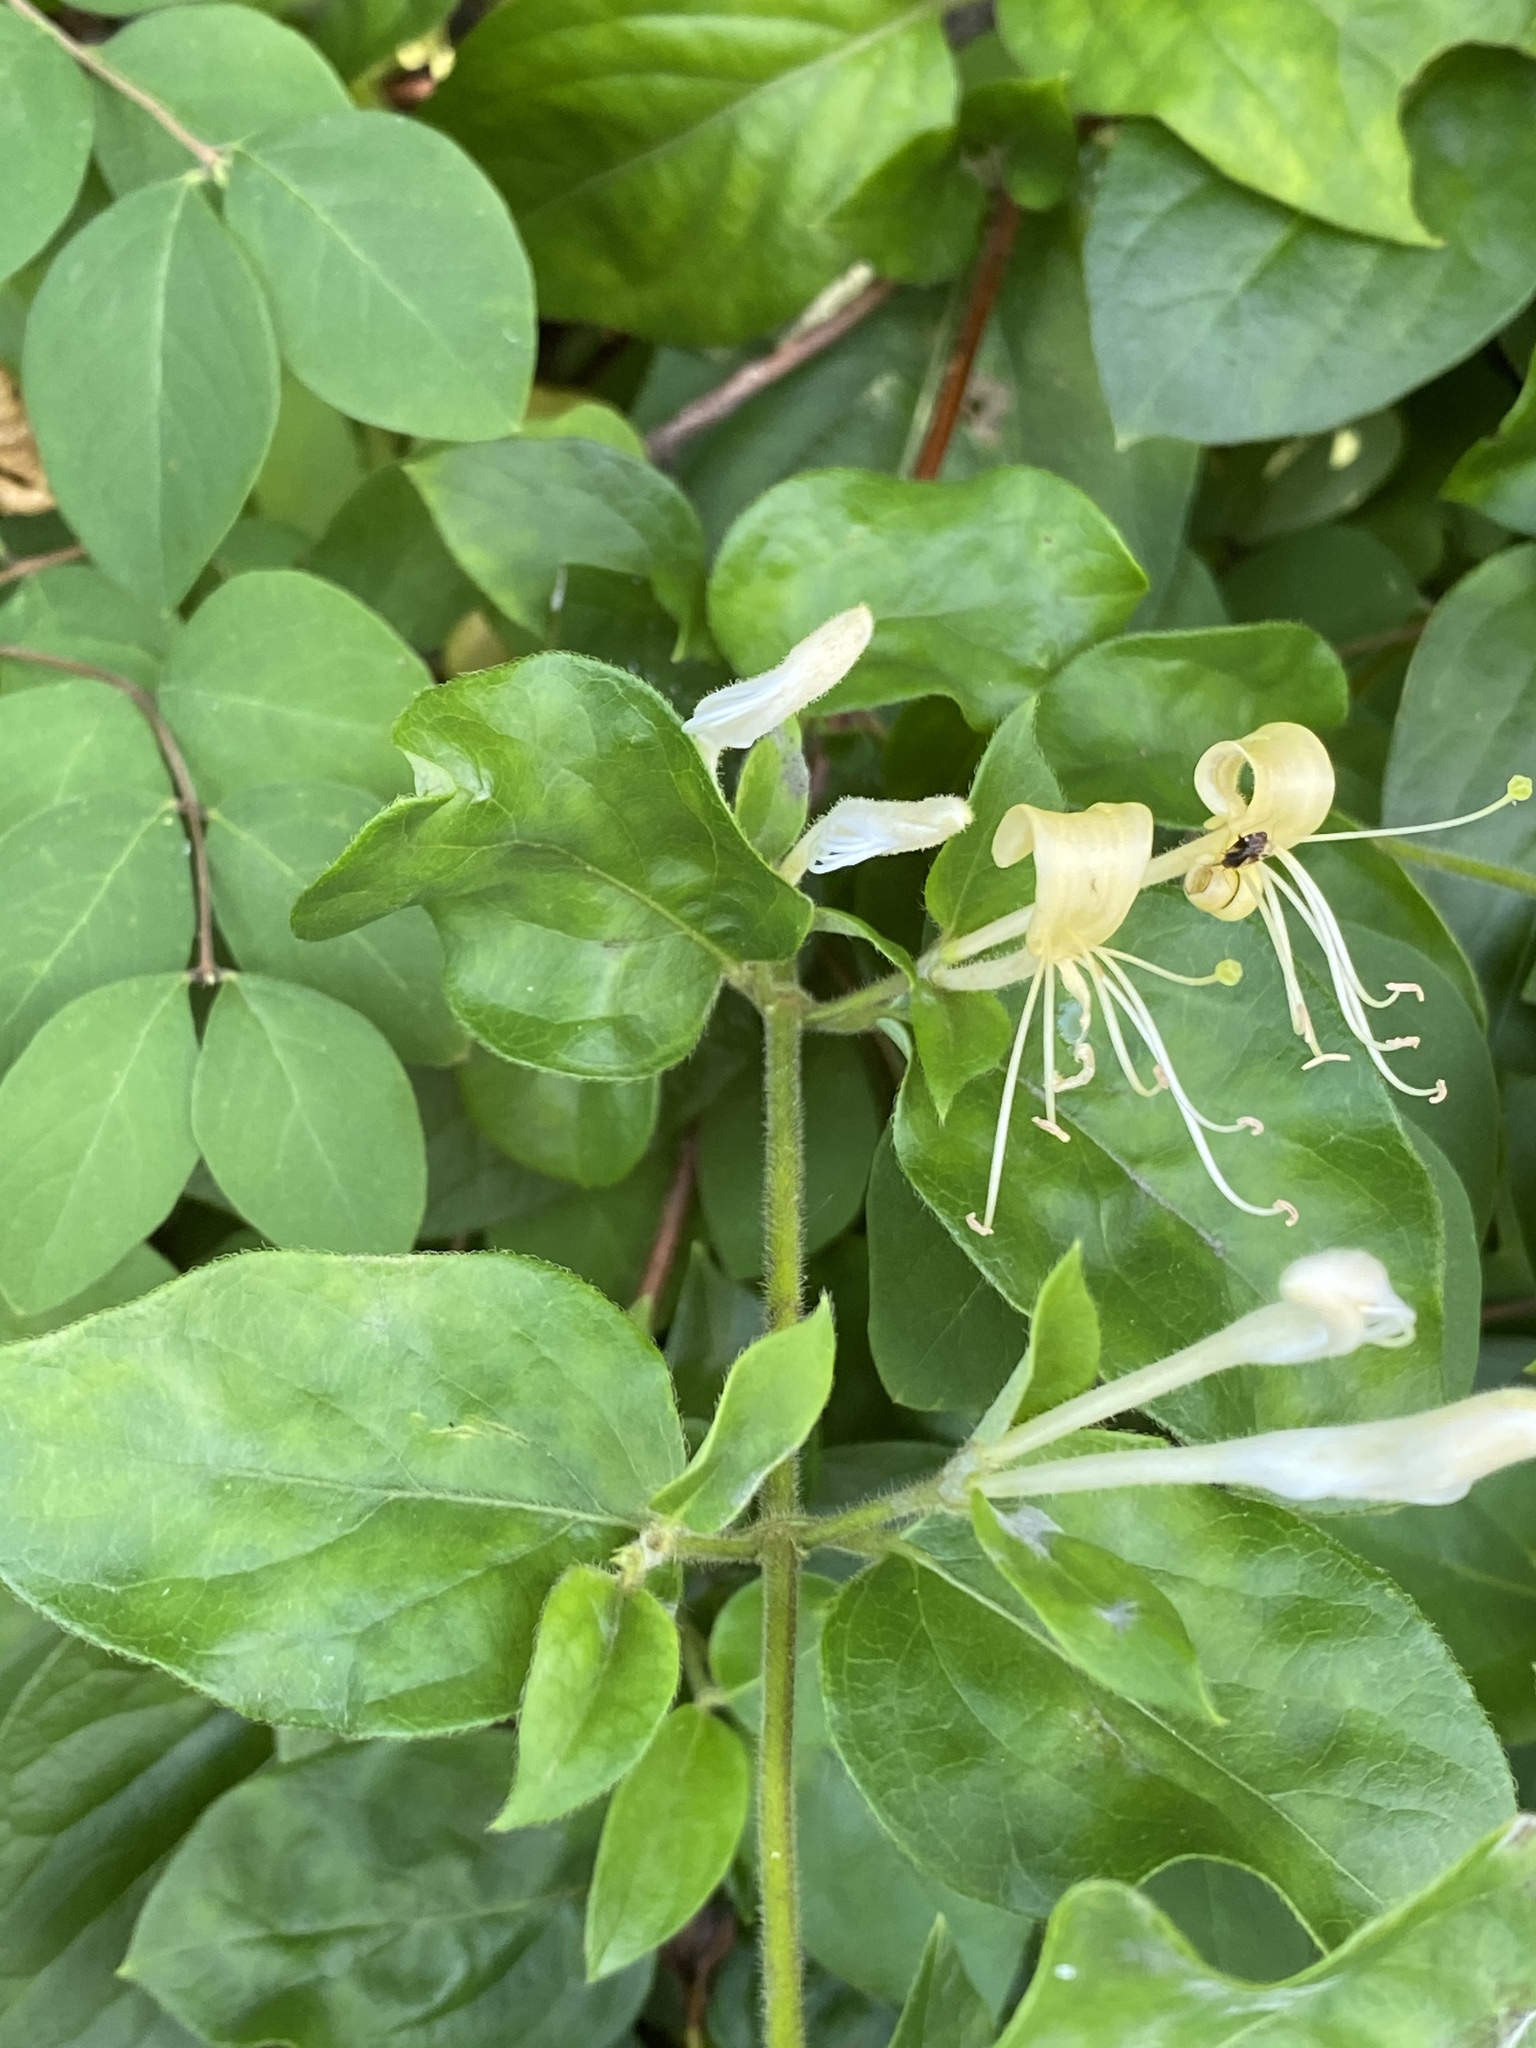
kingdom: Plantae
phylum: Tracheophyta
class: Magnoliopsida
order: Dipsacales
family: Caprifoliaceae
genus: Lonicera
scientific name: Lonicera japonica
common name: Japanese honeysuckle
